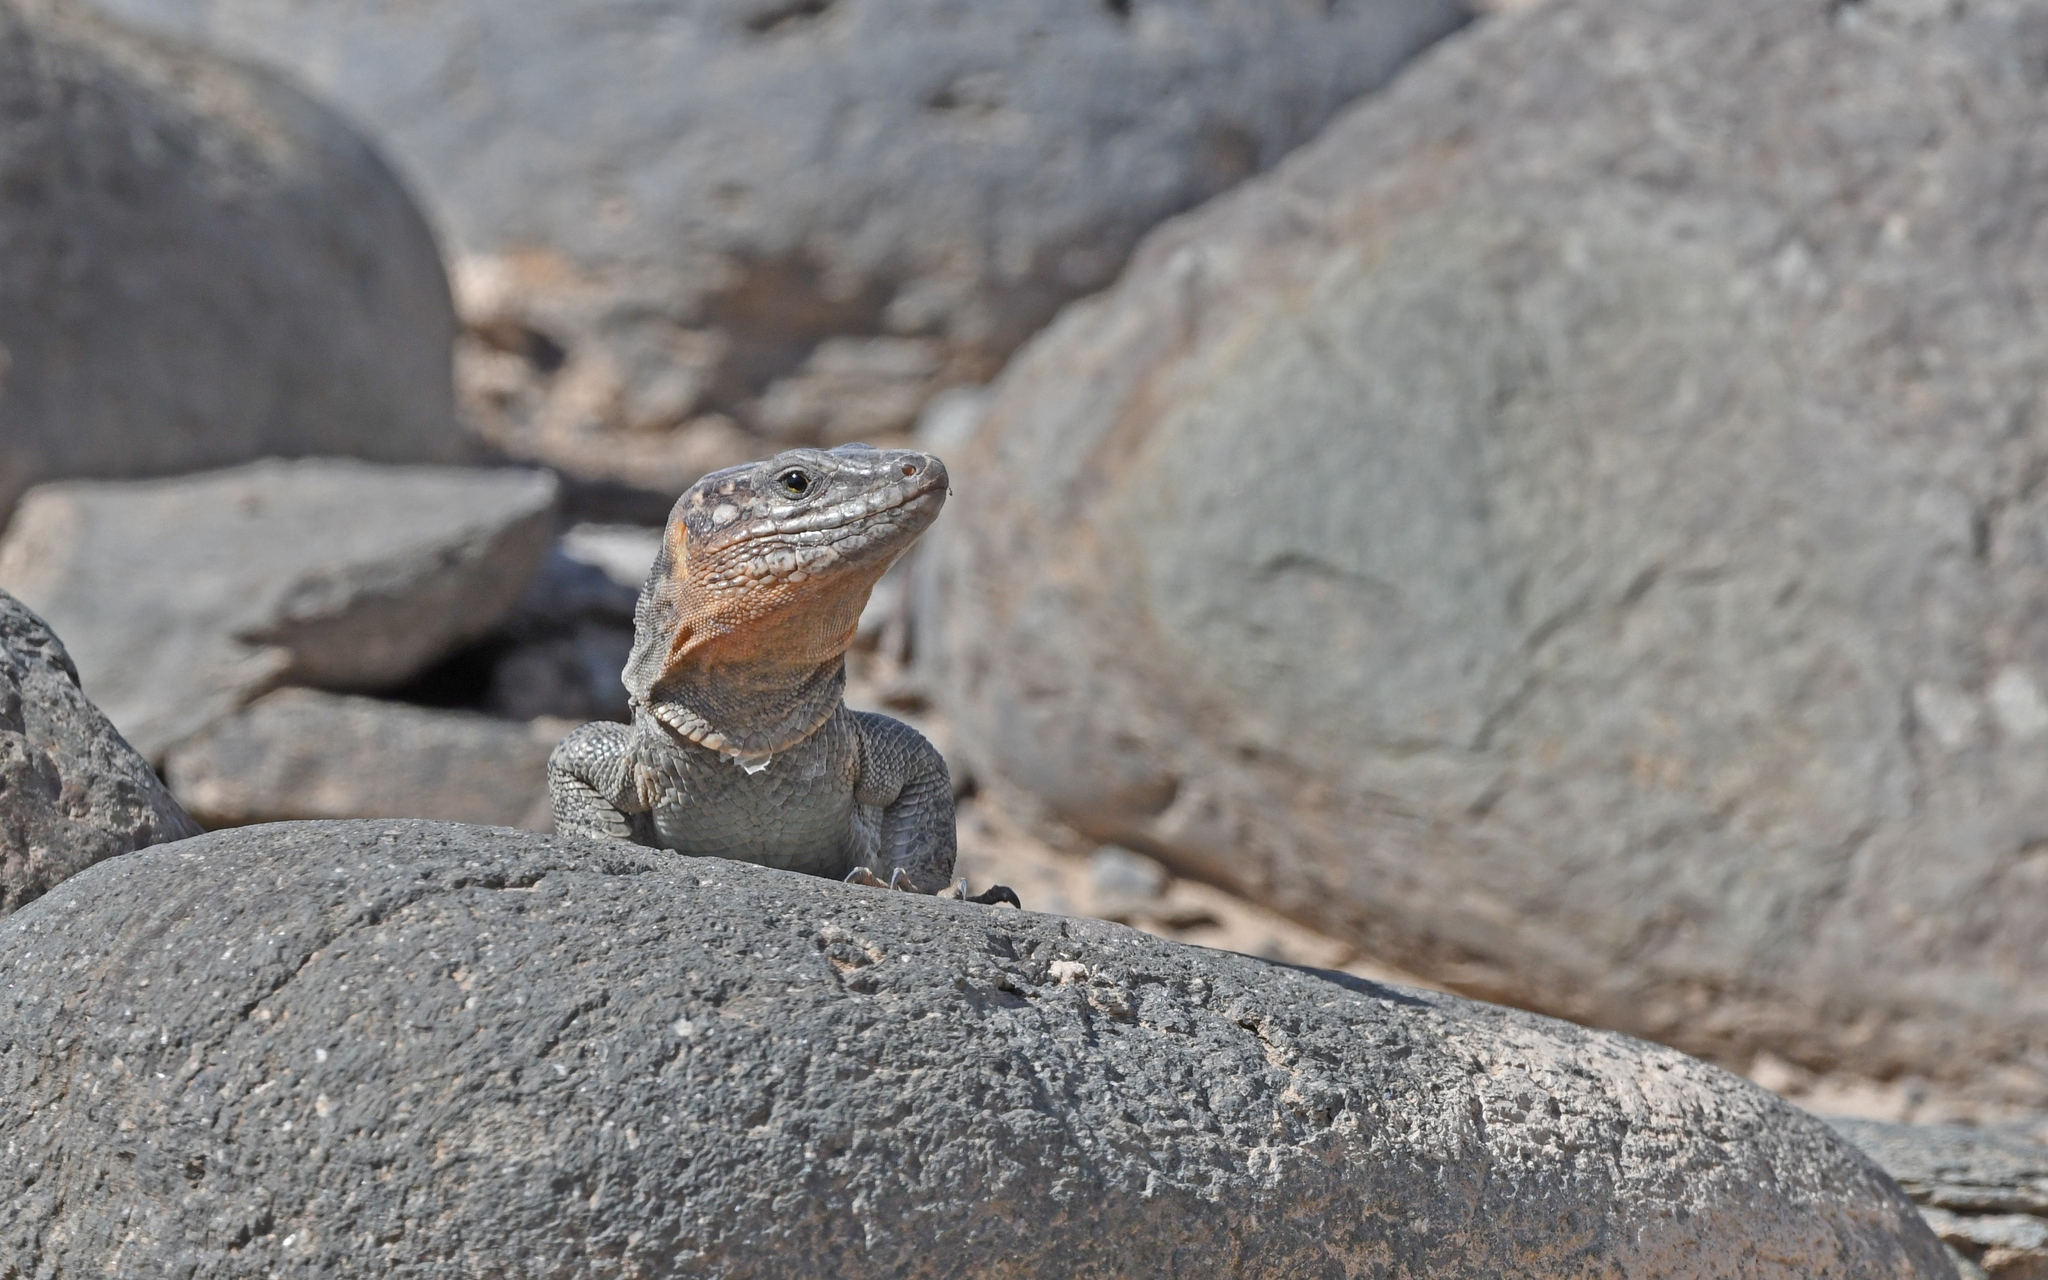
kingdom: Animalia
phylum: Chordata
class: Squamata
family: Lacertidae
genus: Gallotia
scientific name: Gallotia stehlini
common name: Gran canaria giant lizard
